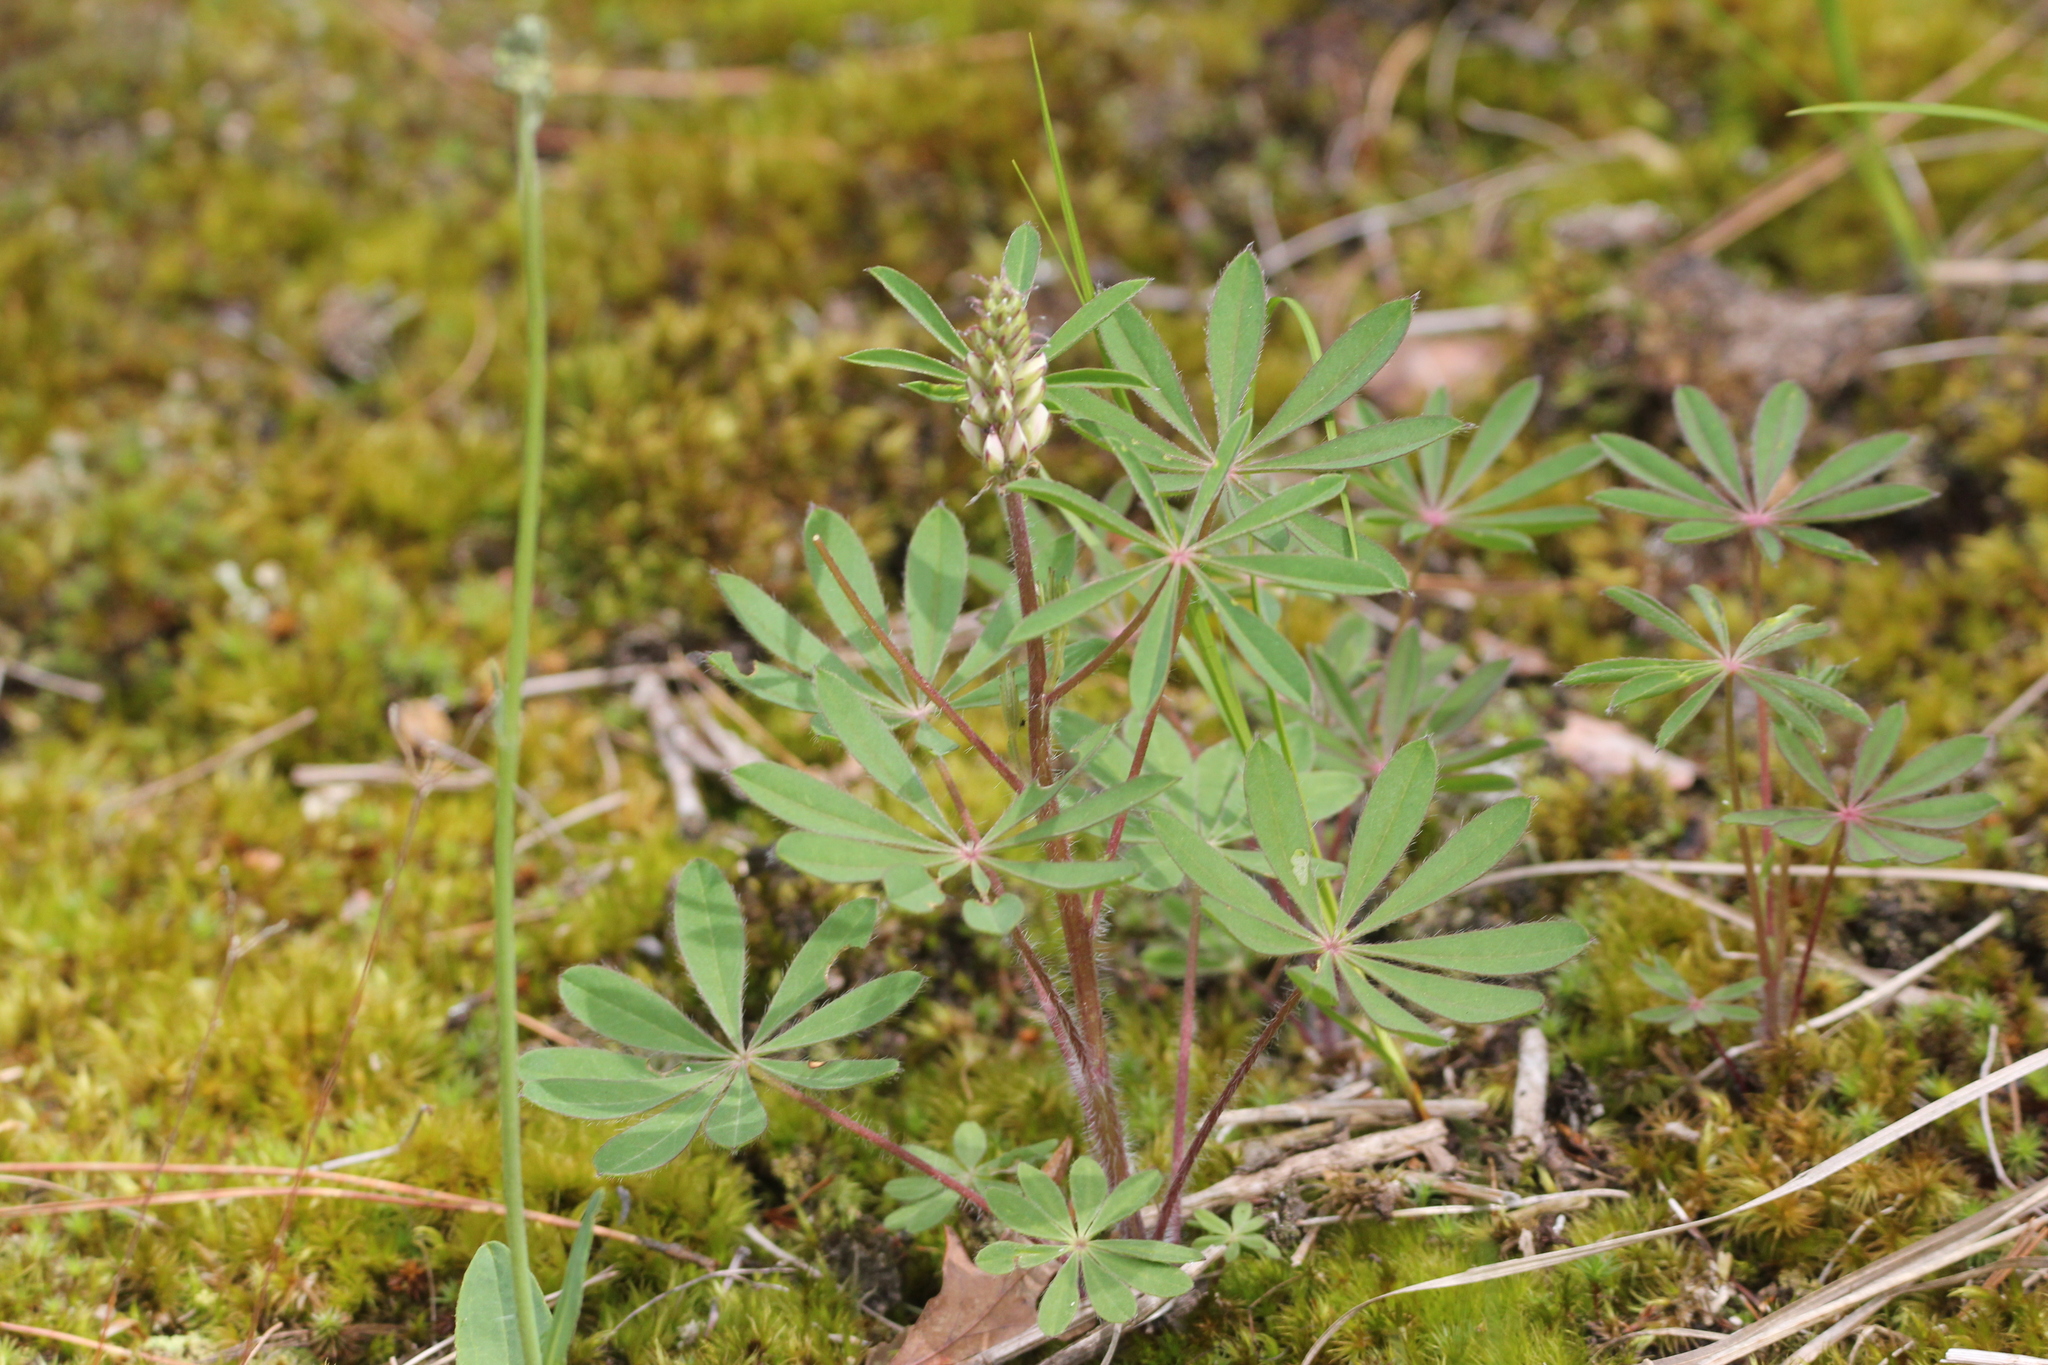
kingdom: Plantae
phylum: Tracheophyta
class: Magnoliopsida
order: Fabales
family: Fabaceae
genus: Lupinus
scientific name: Lupinus perennis
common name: Sundial lupine
